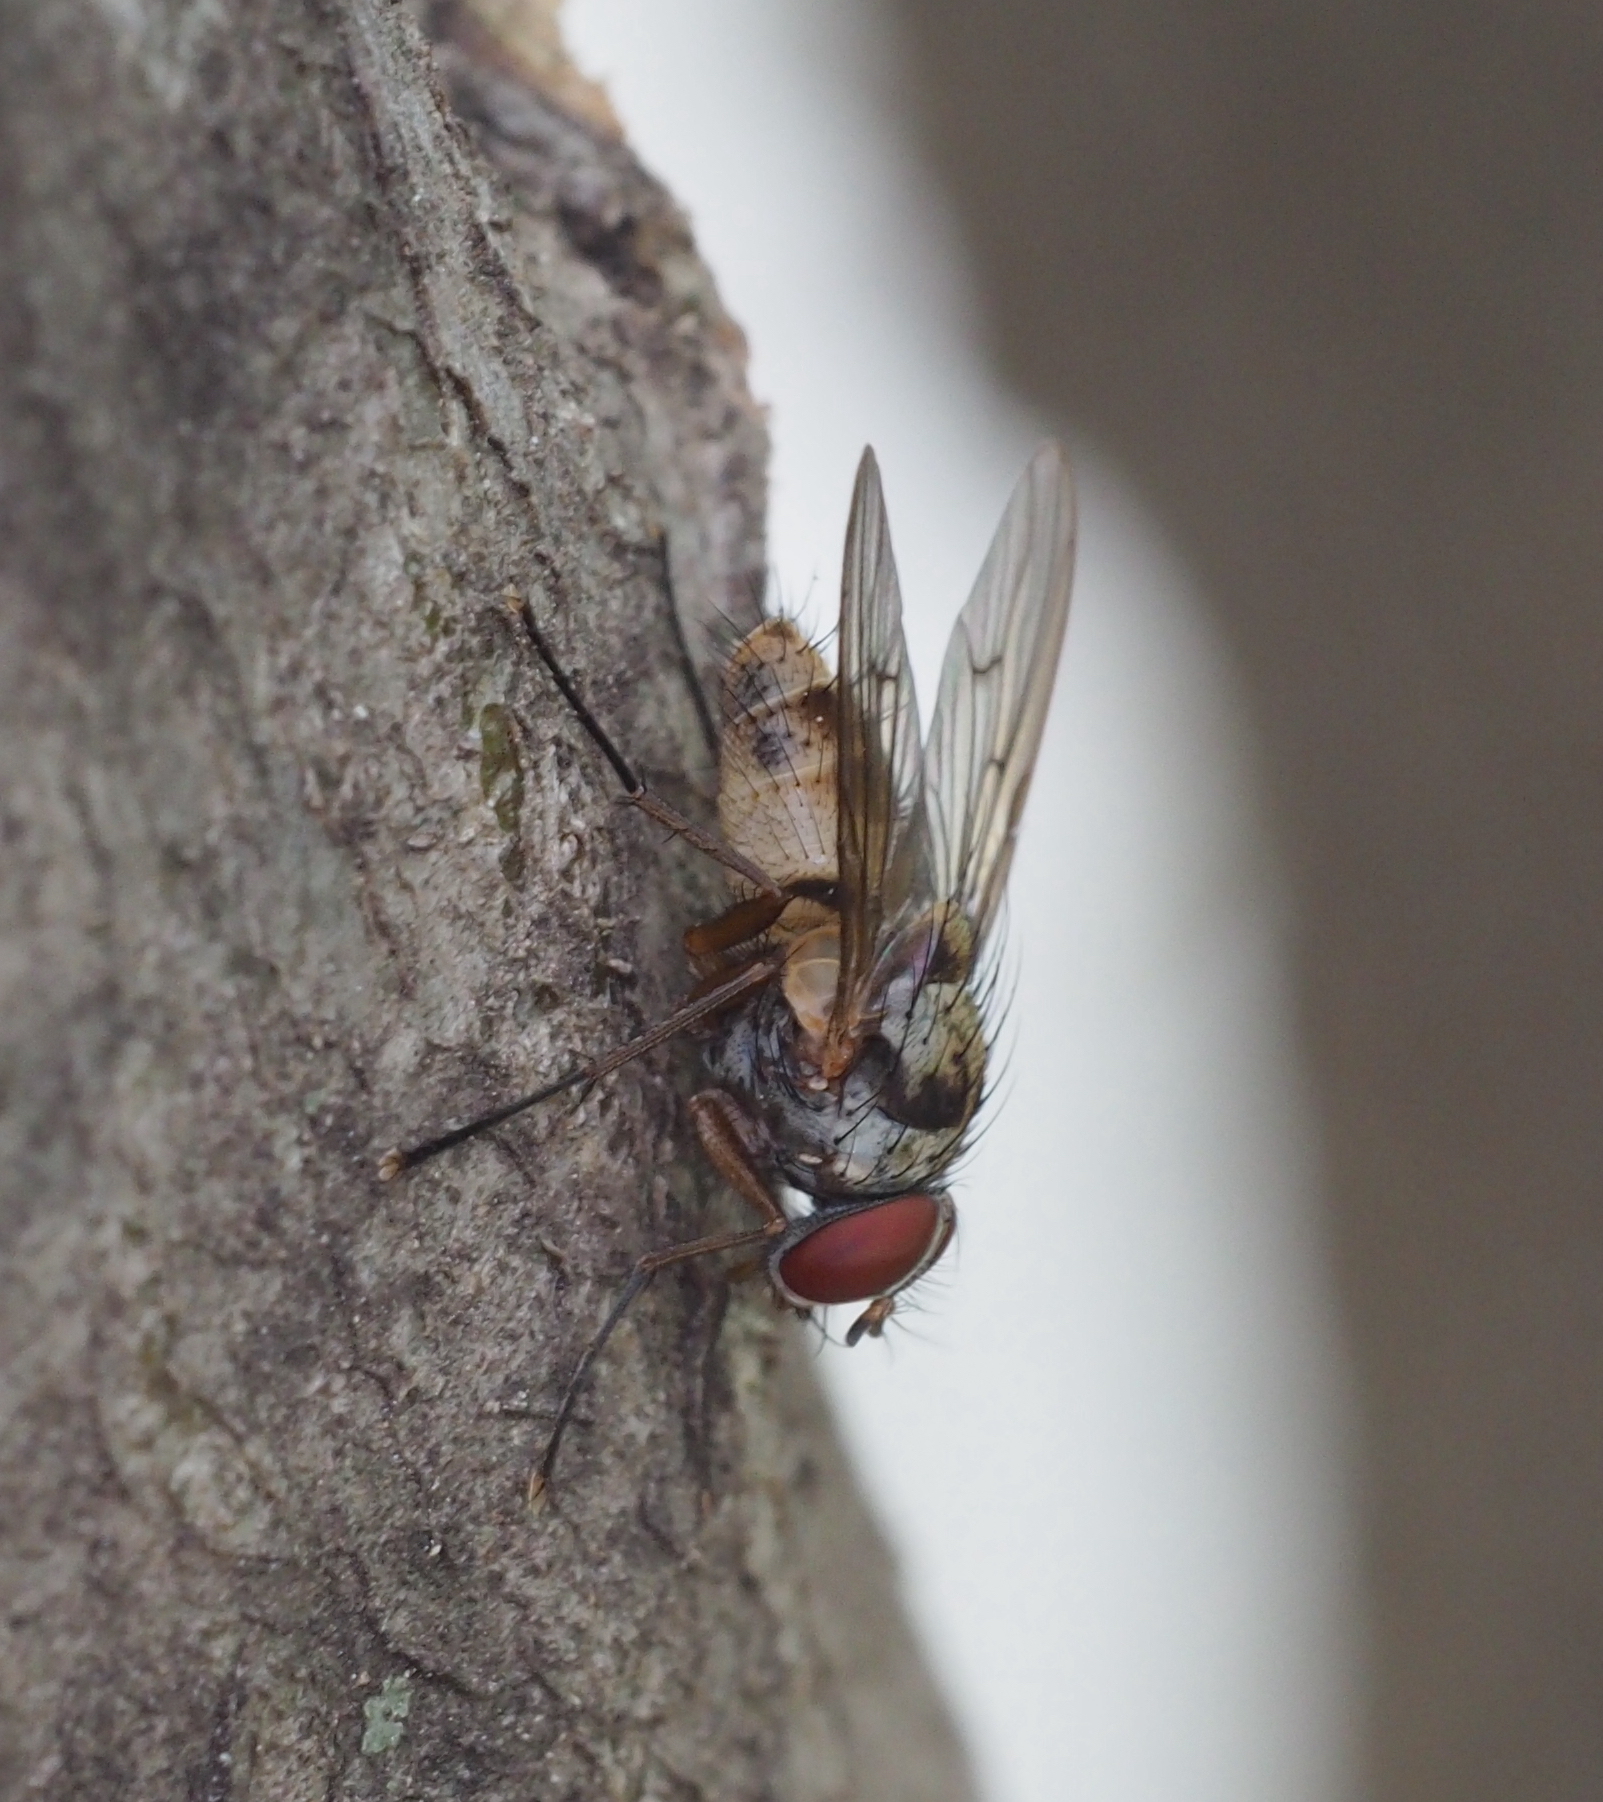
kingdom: Animalia
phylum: Arthropoda
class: Insecta
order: Diptera
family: Muscidae
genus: Helina
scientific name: Helina sexmaculata
